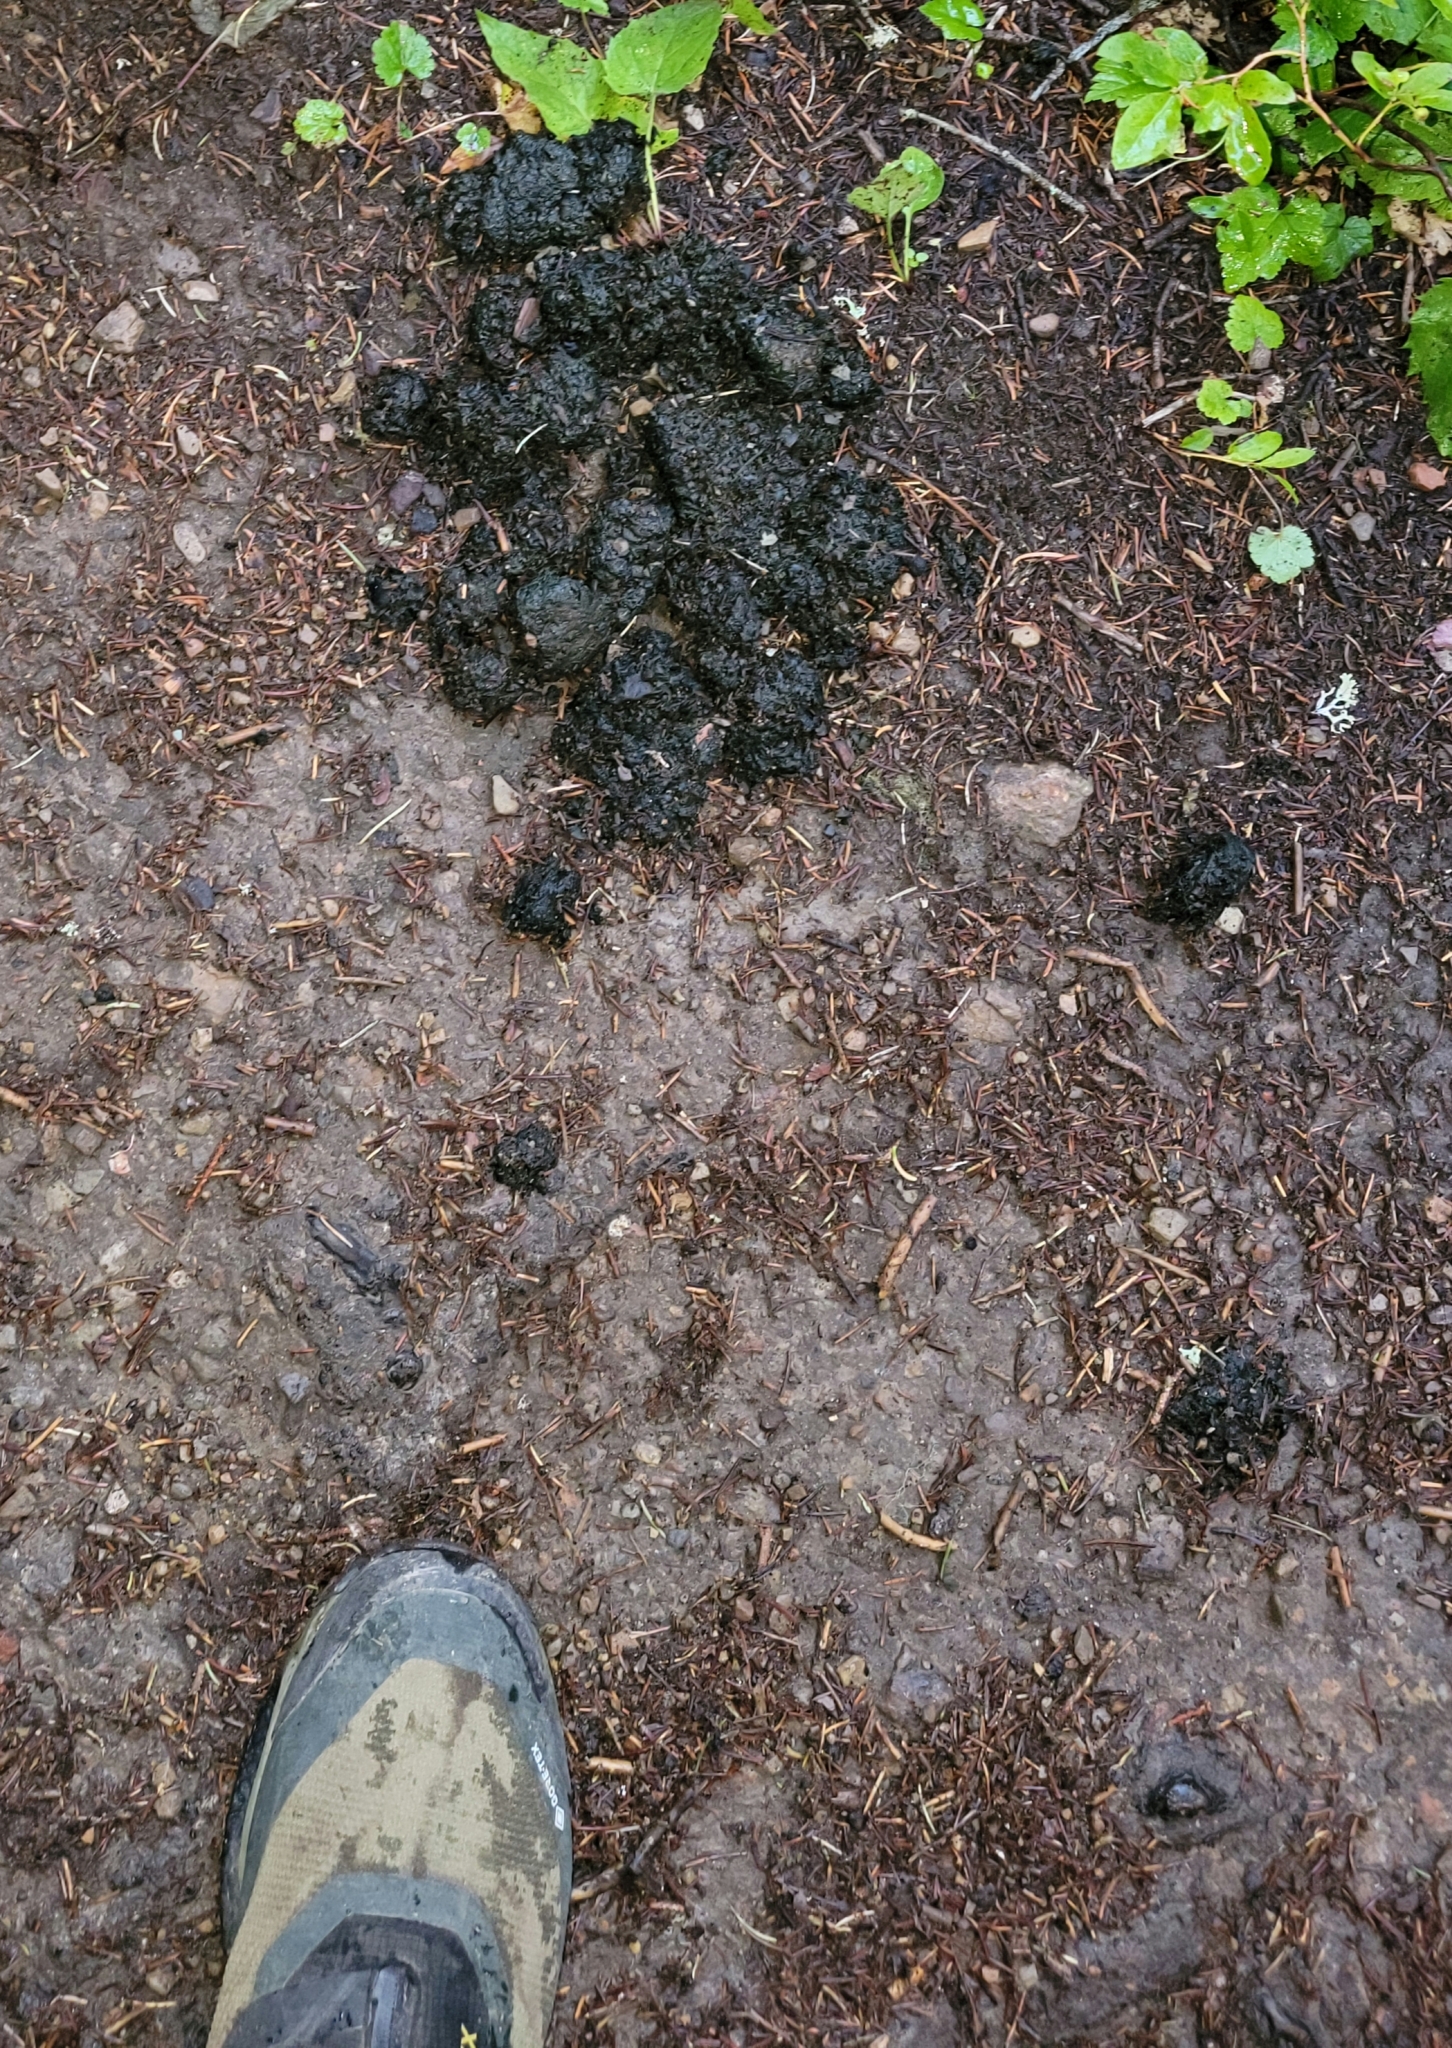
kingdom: Animalia
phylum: Chordata
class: Mammalia
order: Carnivora
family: Ursidae
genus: Ursus
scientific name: Ursus
